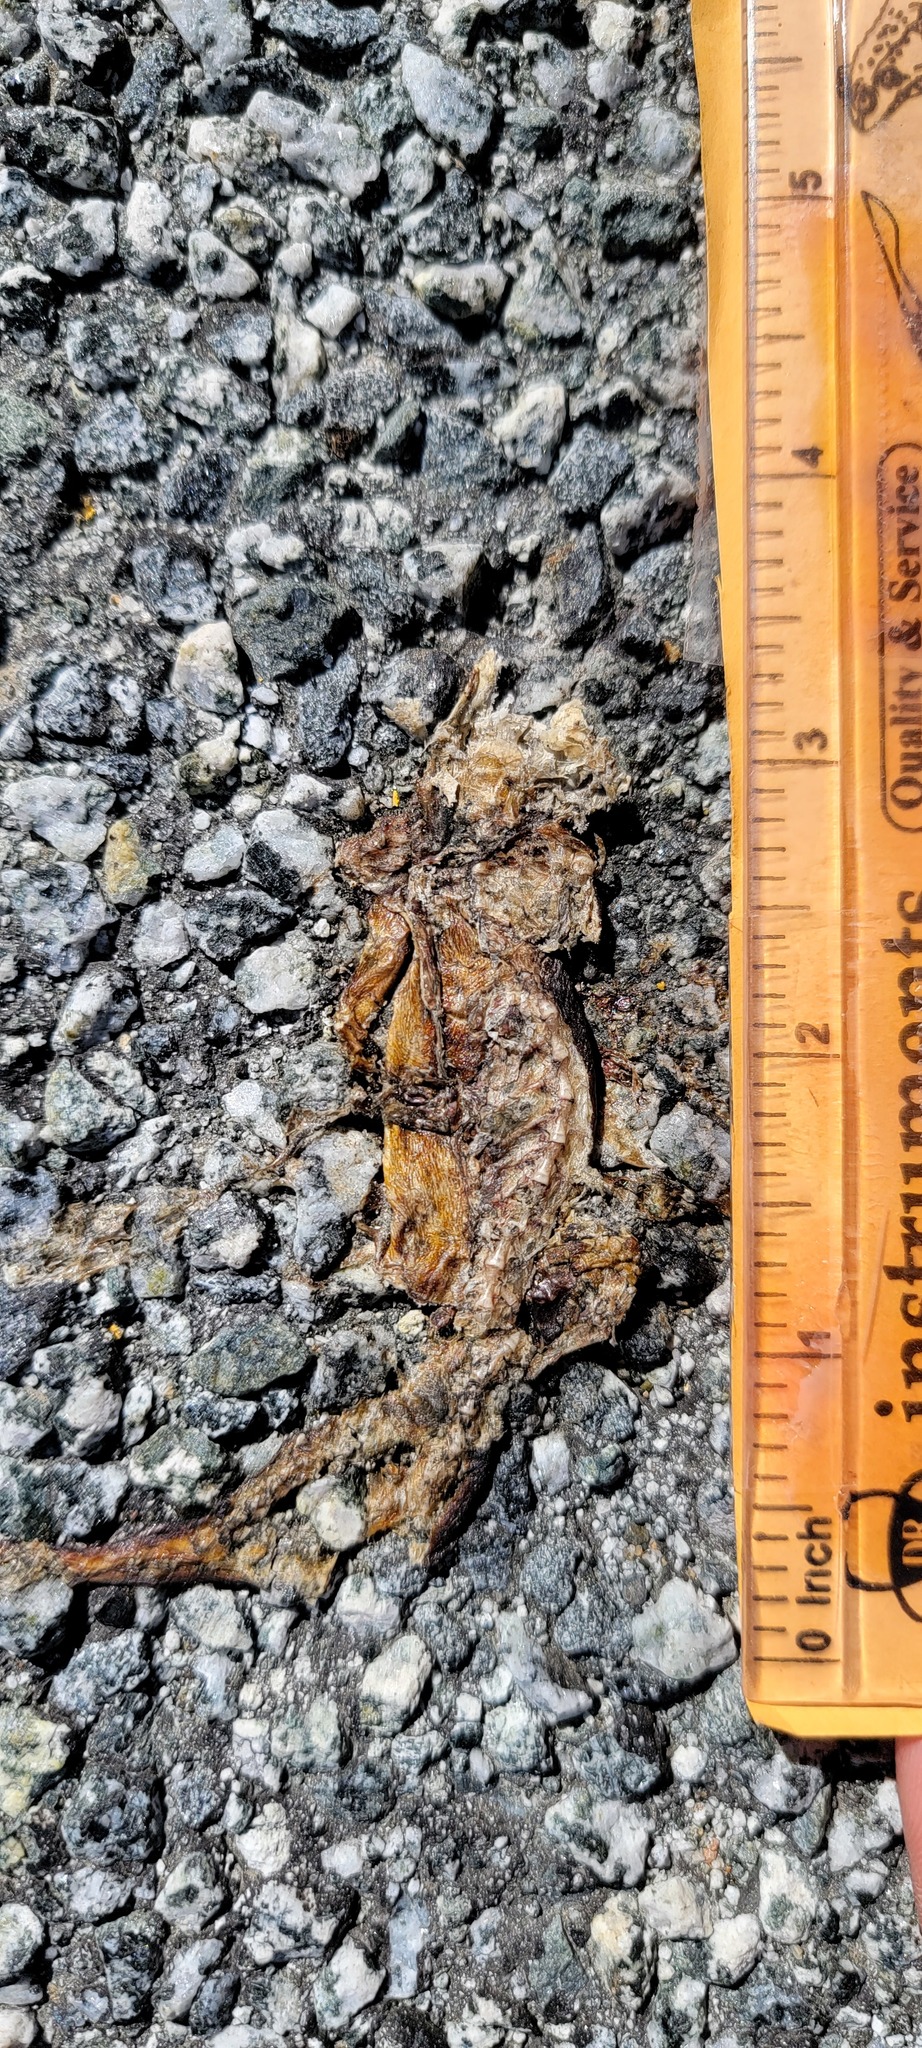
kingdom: Animalia
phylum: Chordata
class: Amphibia
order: Caudata
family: Salamandridae
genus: Taricha
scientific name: Taricha
